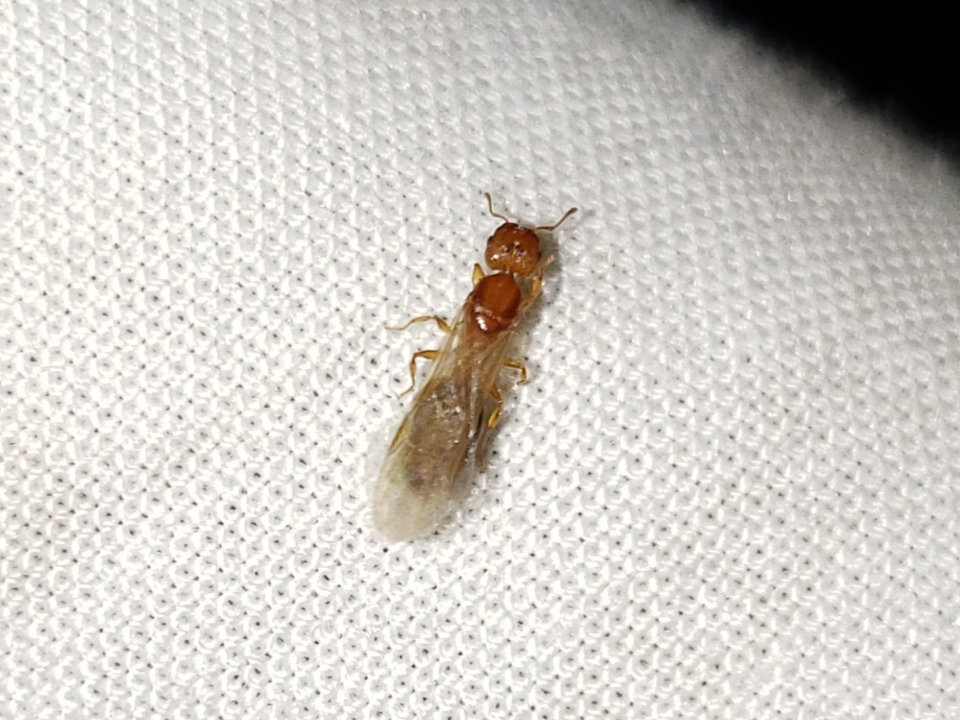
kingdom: Animalia
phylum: Arthropoda
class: Insecta
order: Hymenoptera
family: Formicidae
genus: Pheidole
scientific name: Pheidole parva
